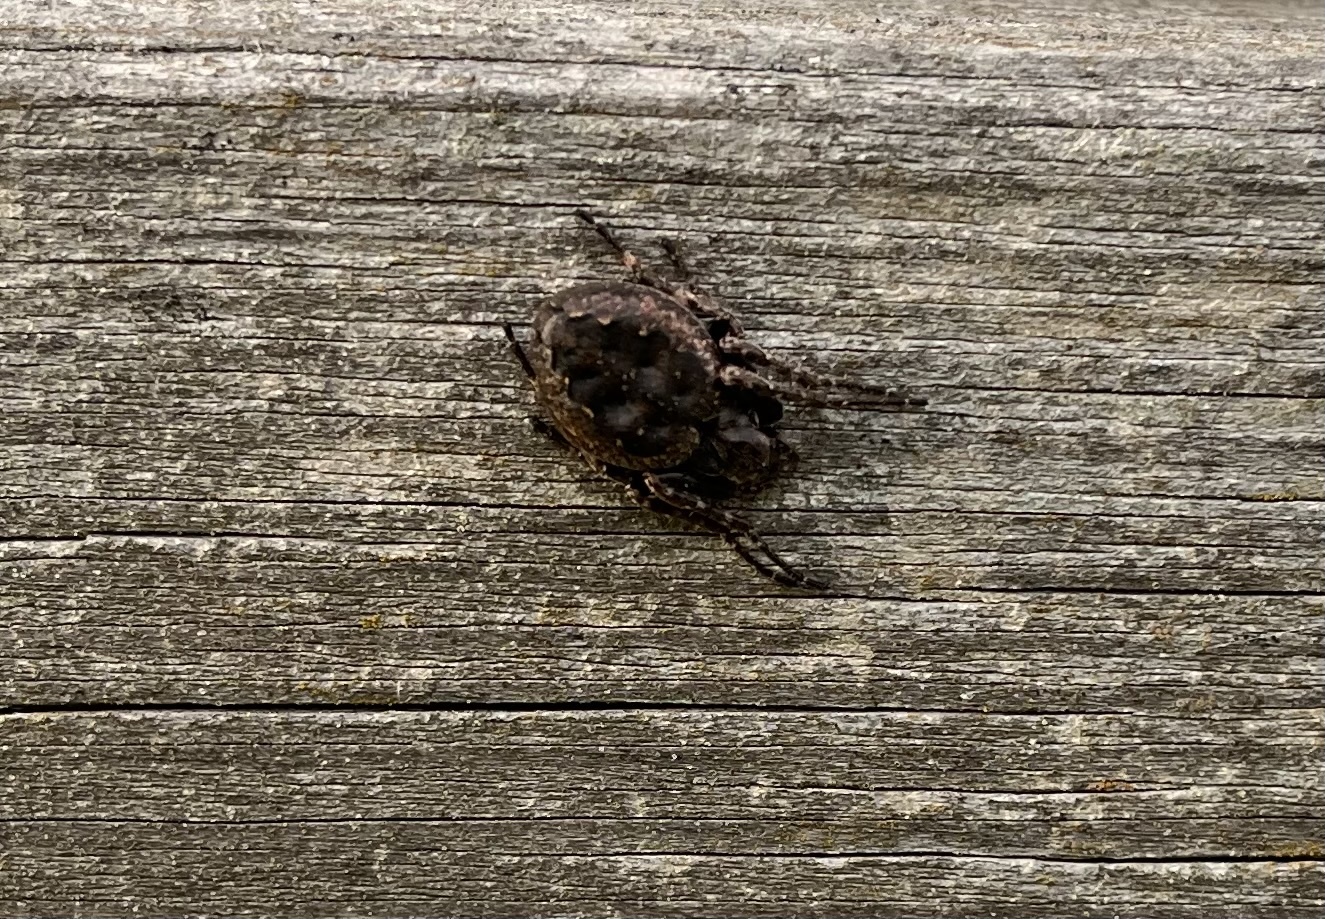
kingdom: Animalia
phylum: Arthropoda
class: Arachnida
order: Araneae
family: Araneidae
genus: Nuctenea
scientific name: Nuctenea umbratica
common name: Toad spider
